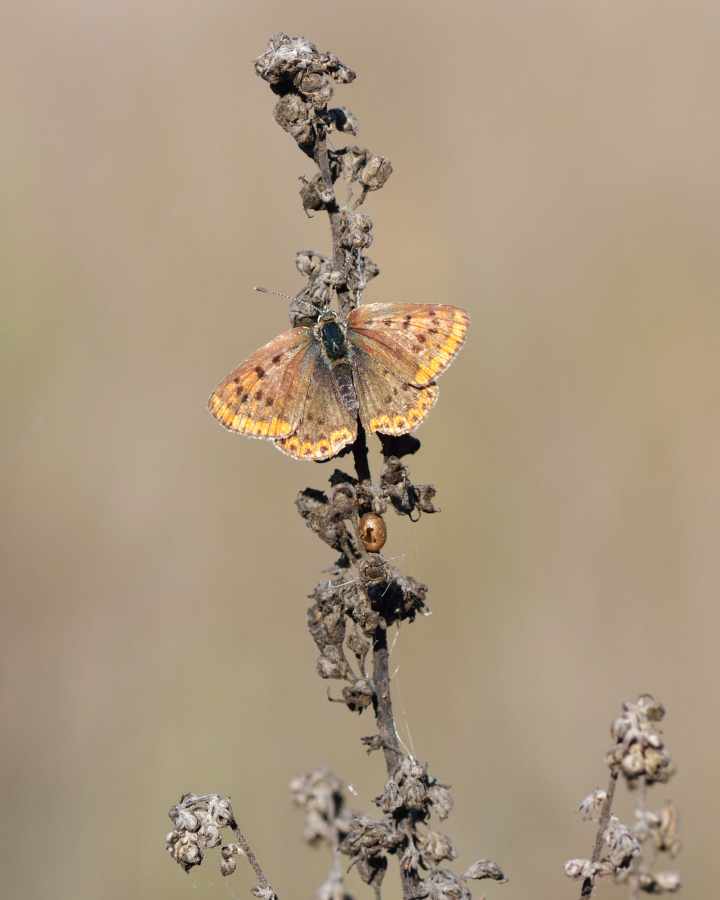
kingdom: Animalia
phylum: Arthropoda
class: Insecta
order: Lepidoptera
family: Lycaenidae
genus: Loweia
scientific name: Loweia tityrus
